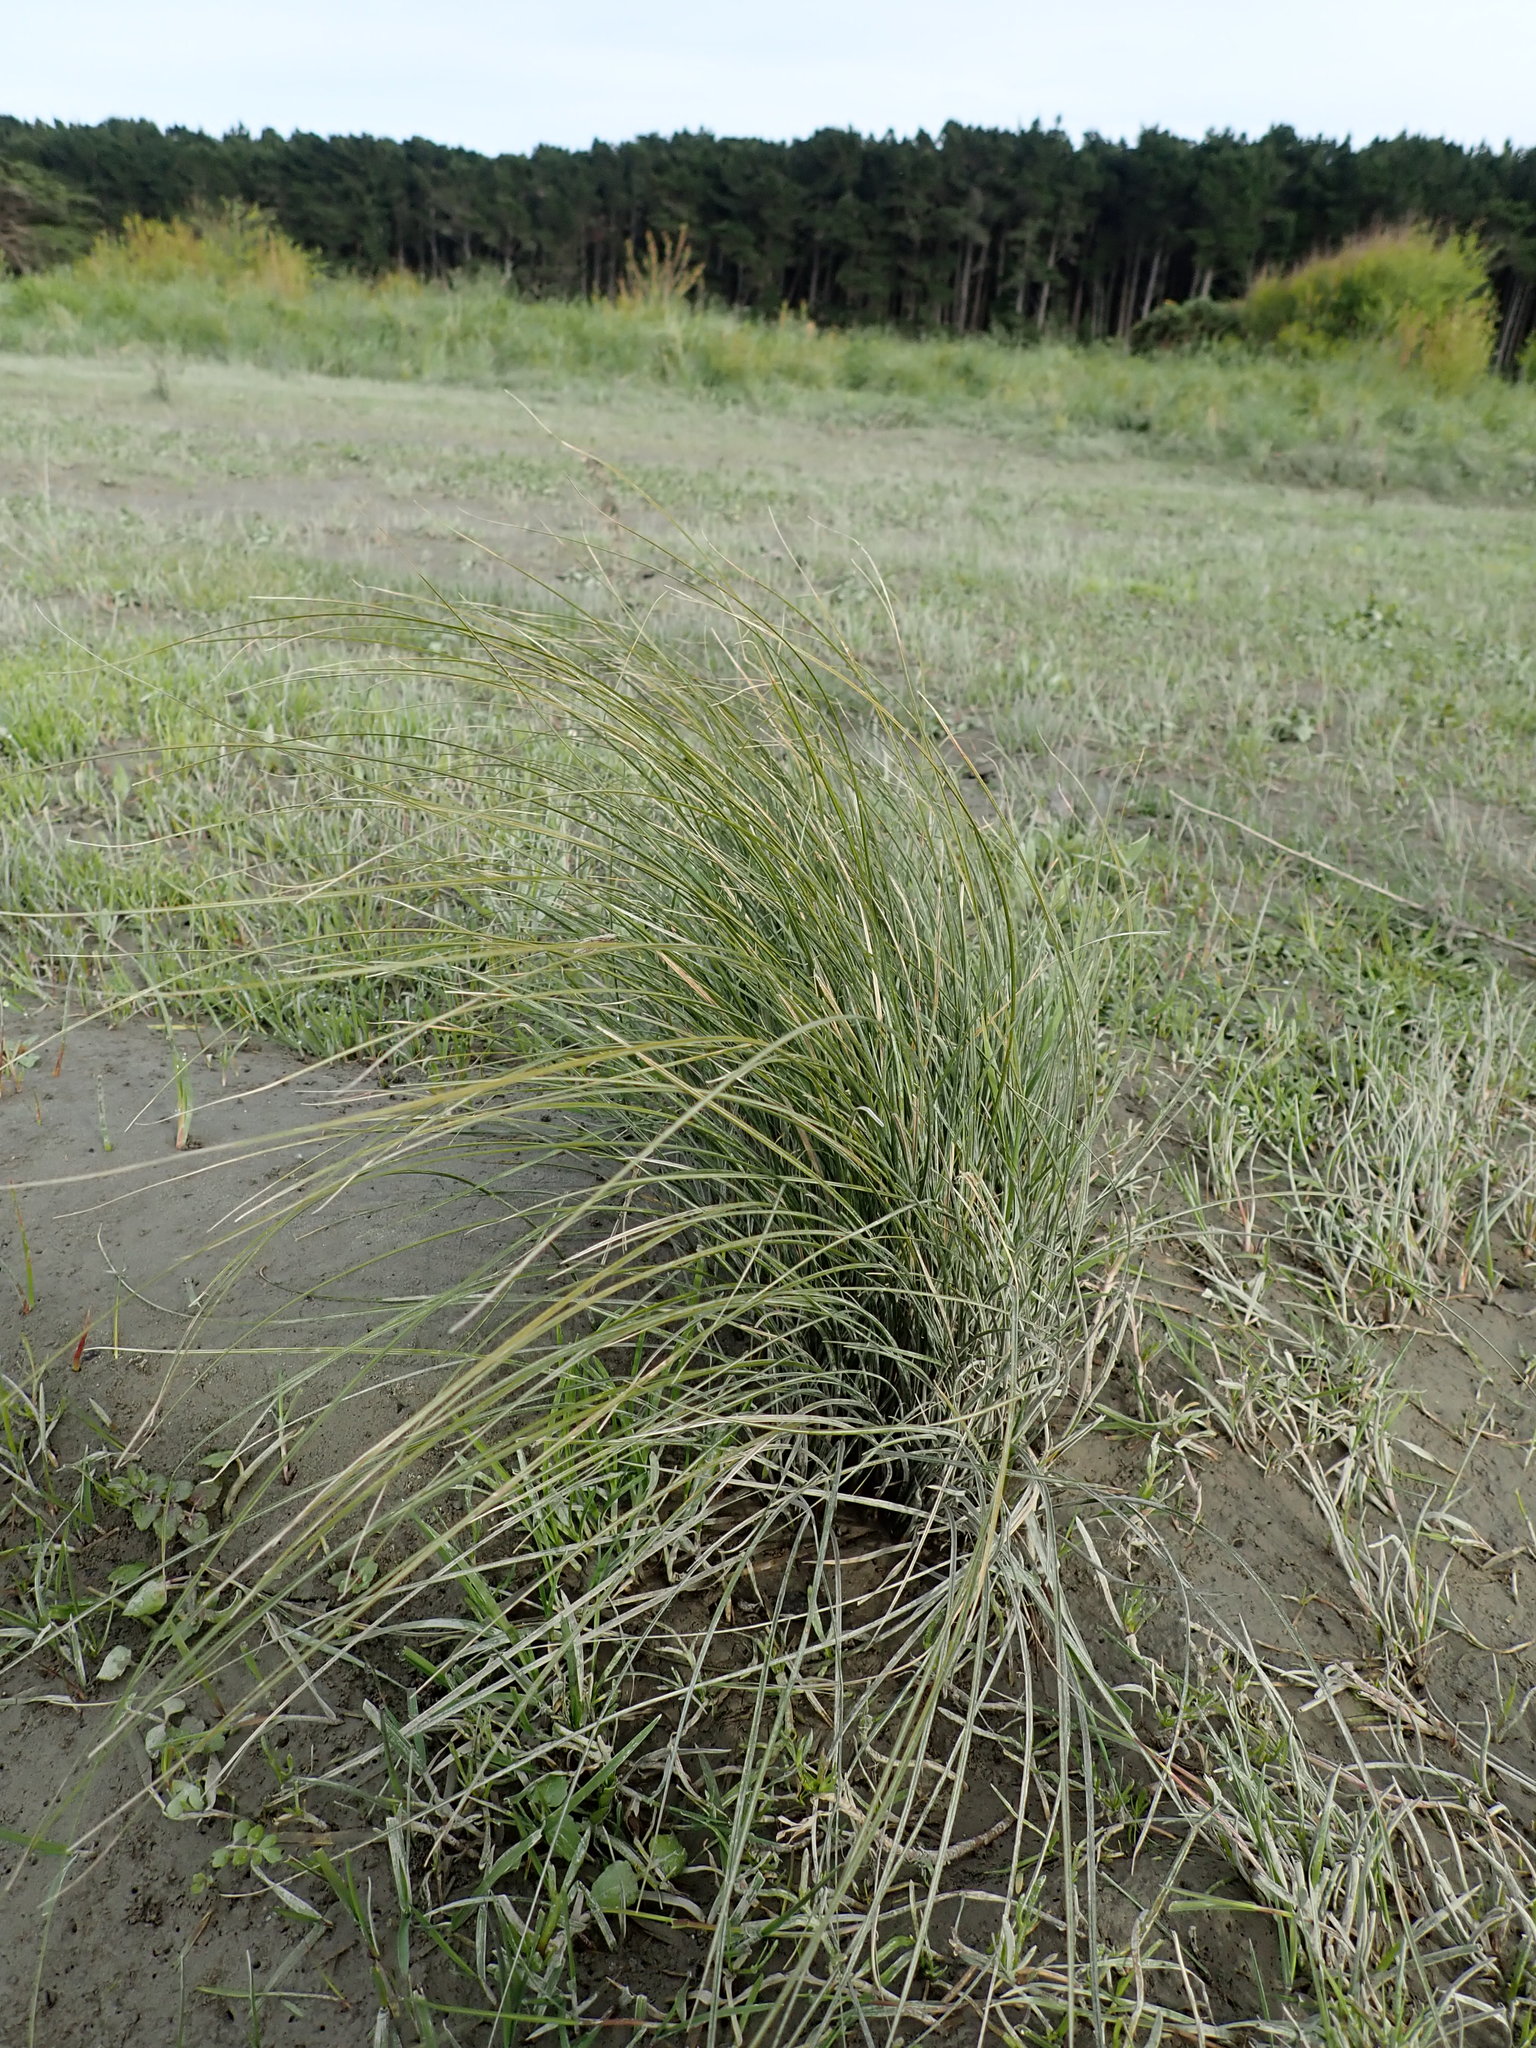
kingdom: Plantae
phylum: Tracheophyta
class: Liliopsida
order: Poales
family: Cyperaceae
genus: Carex
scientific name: Carex litorosa
